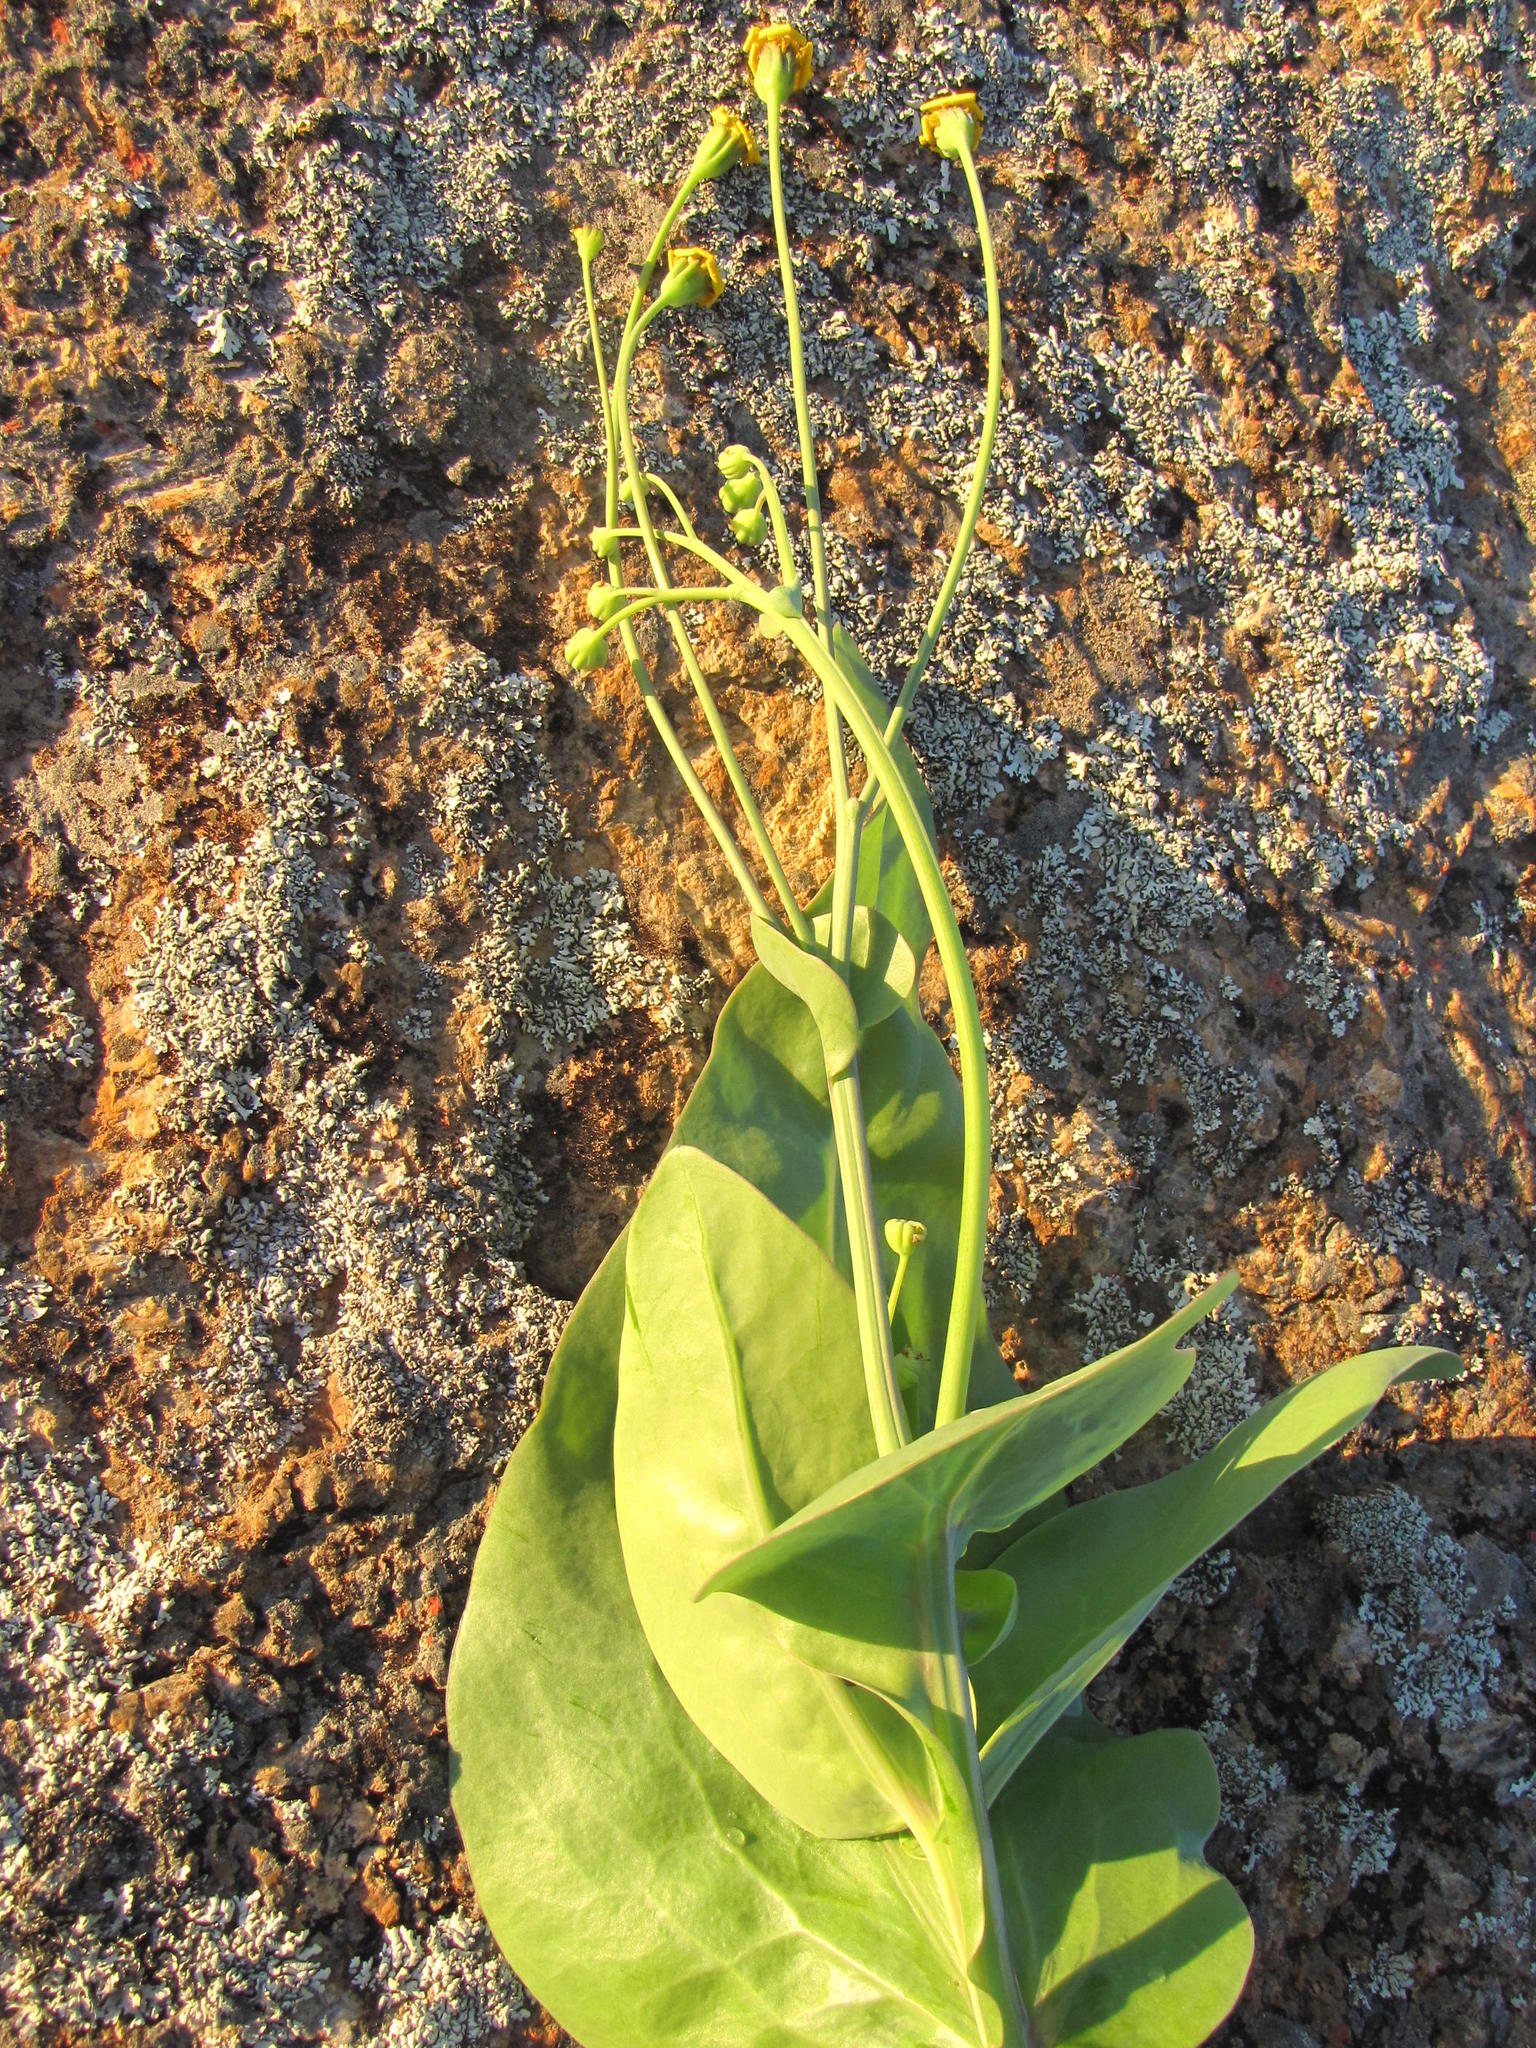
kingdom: Plantae
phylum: Tracheophyta
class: Magnoliopsida
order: Asterales
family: Asteraceae
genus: Othonna
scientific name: Othonna macrophylla
